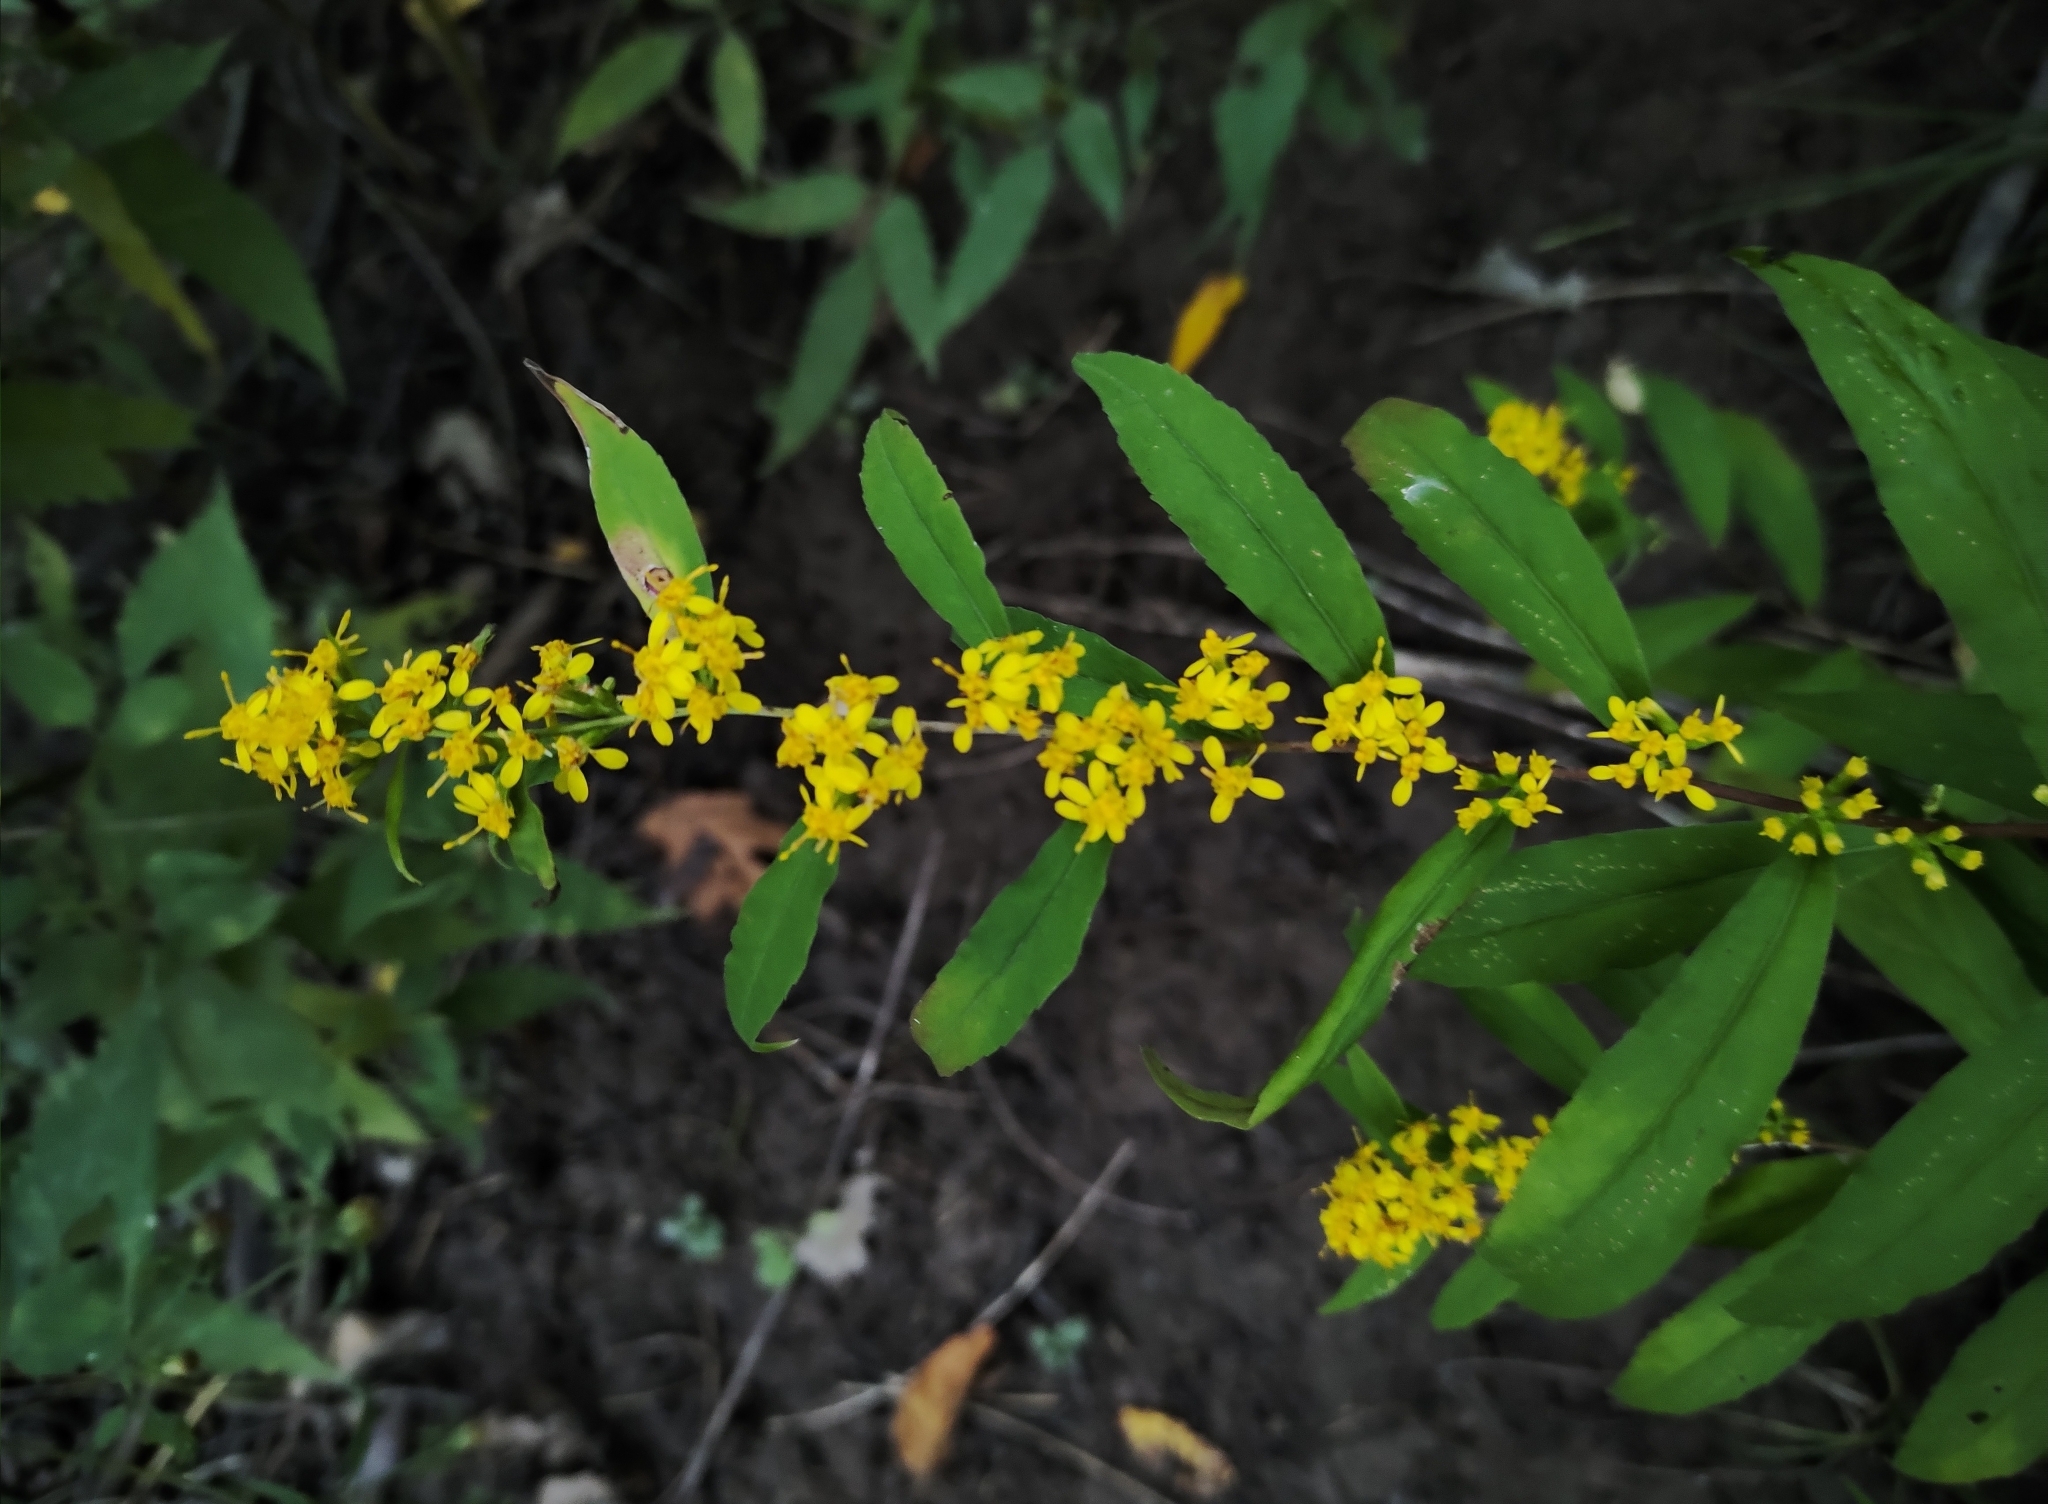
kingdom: Plantae
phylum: Tracheophyta
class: Magnoliopsida
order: Asterales
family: Asteraceae
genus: Solidago
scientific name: Solidago caesia
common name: Woodland goldenrod
